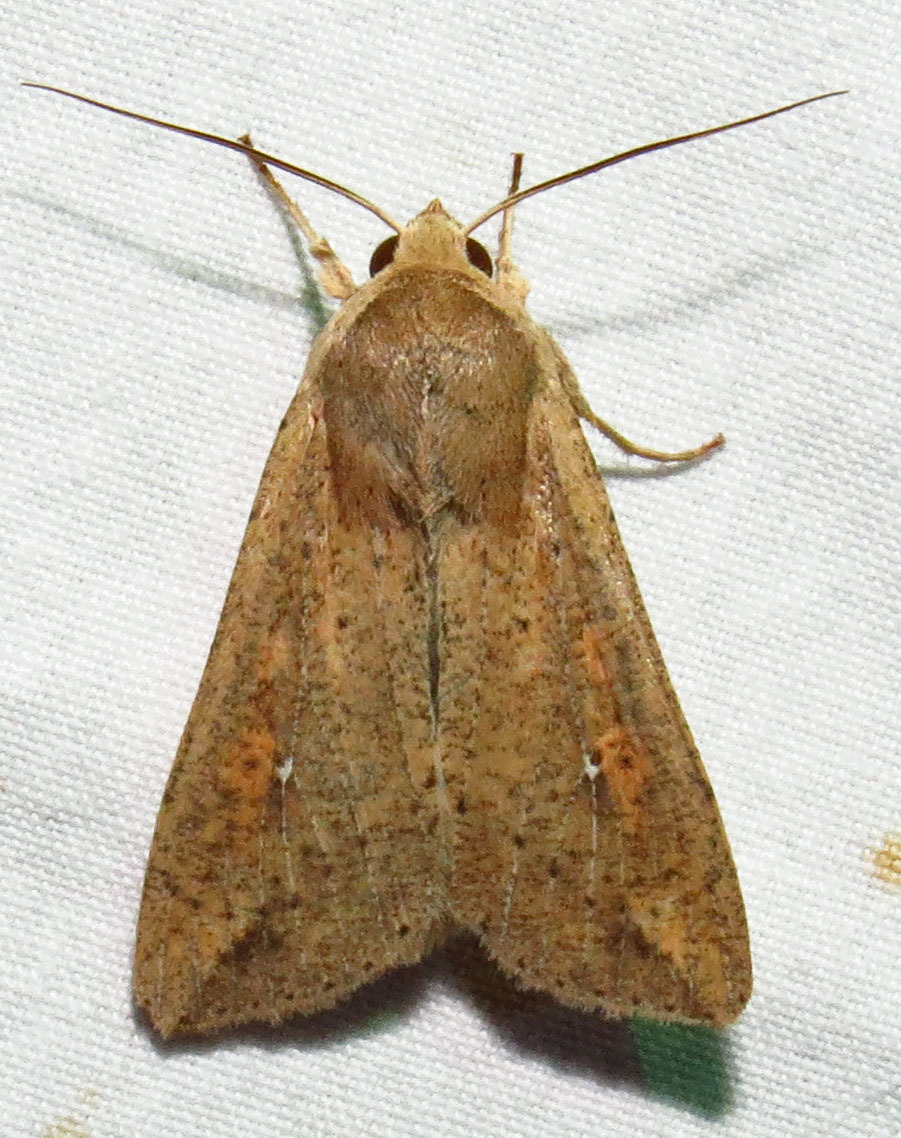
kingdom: Animalia
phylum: Arthropoda
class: Insecta
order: Lepidoptera
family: Noctuidae
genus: Mythimna
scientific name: Mythimna unipuncta
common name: White-speck
